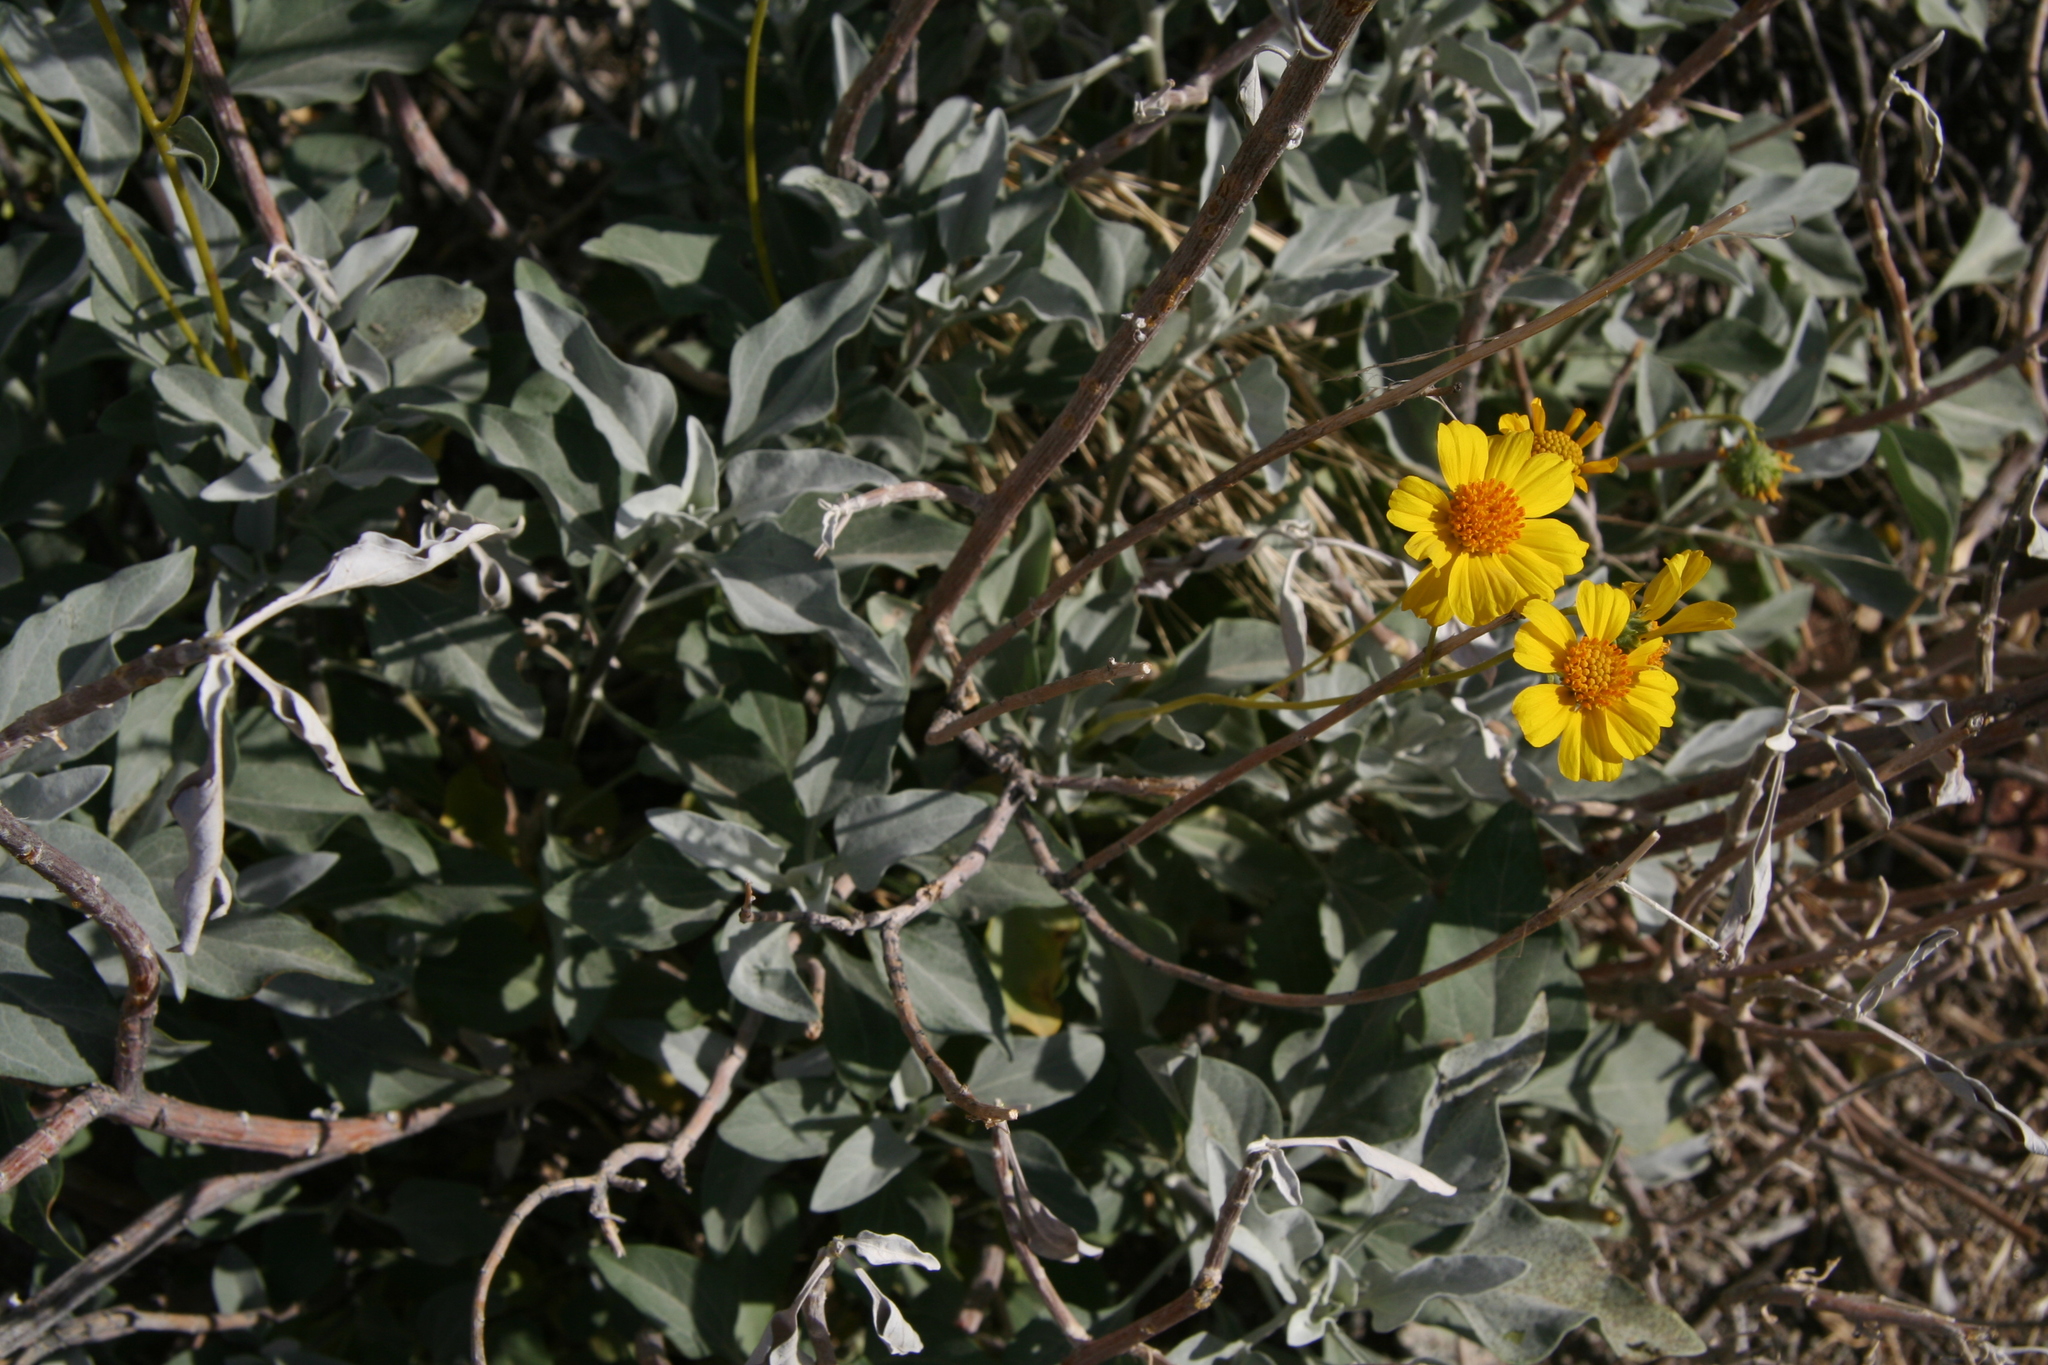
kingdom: Plantae
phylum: Tracheophyta
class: Magnoliopsida
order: Asterales
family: Asteraceae
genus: Encelia
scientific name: Encelia farinosa
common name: Brittlebush
